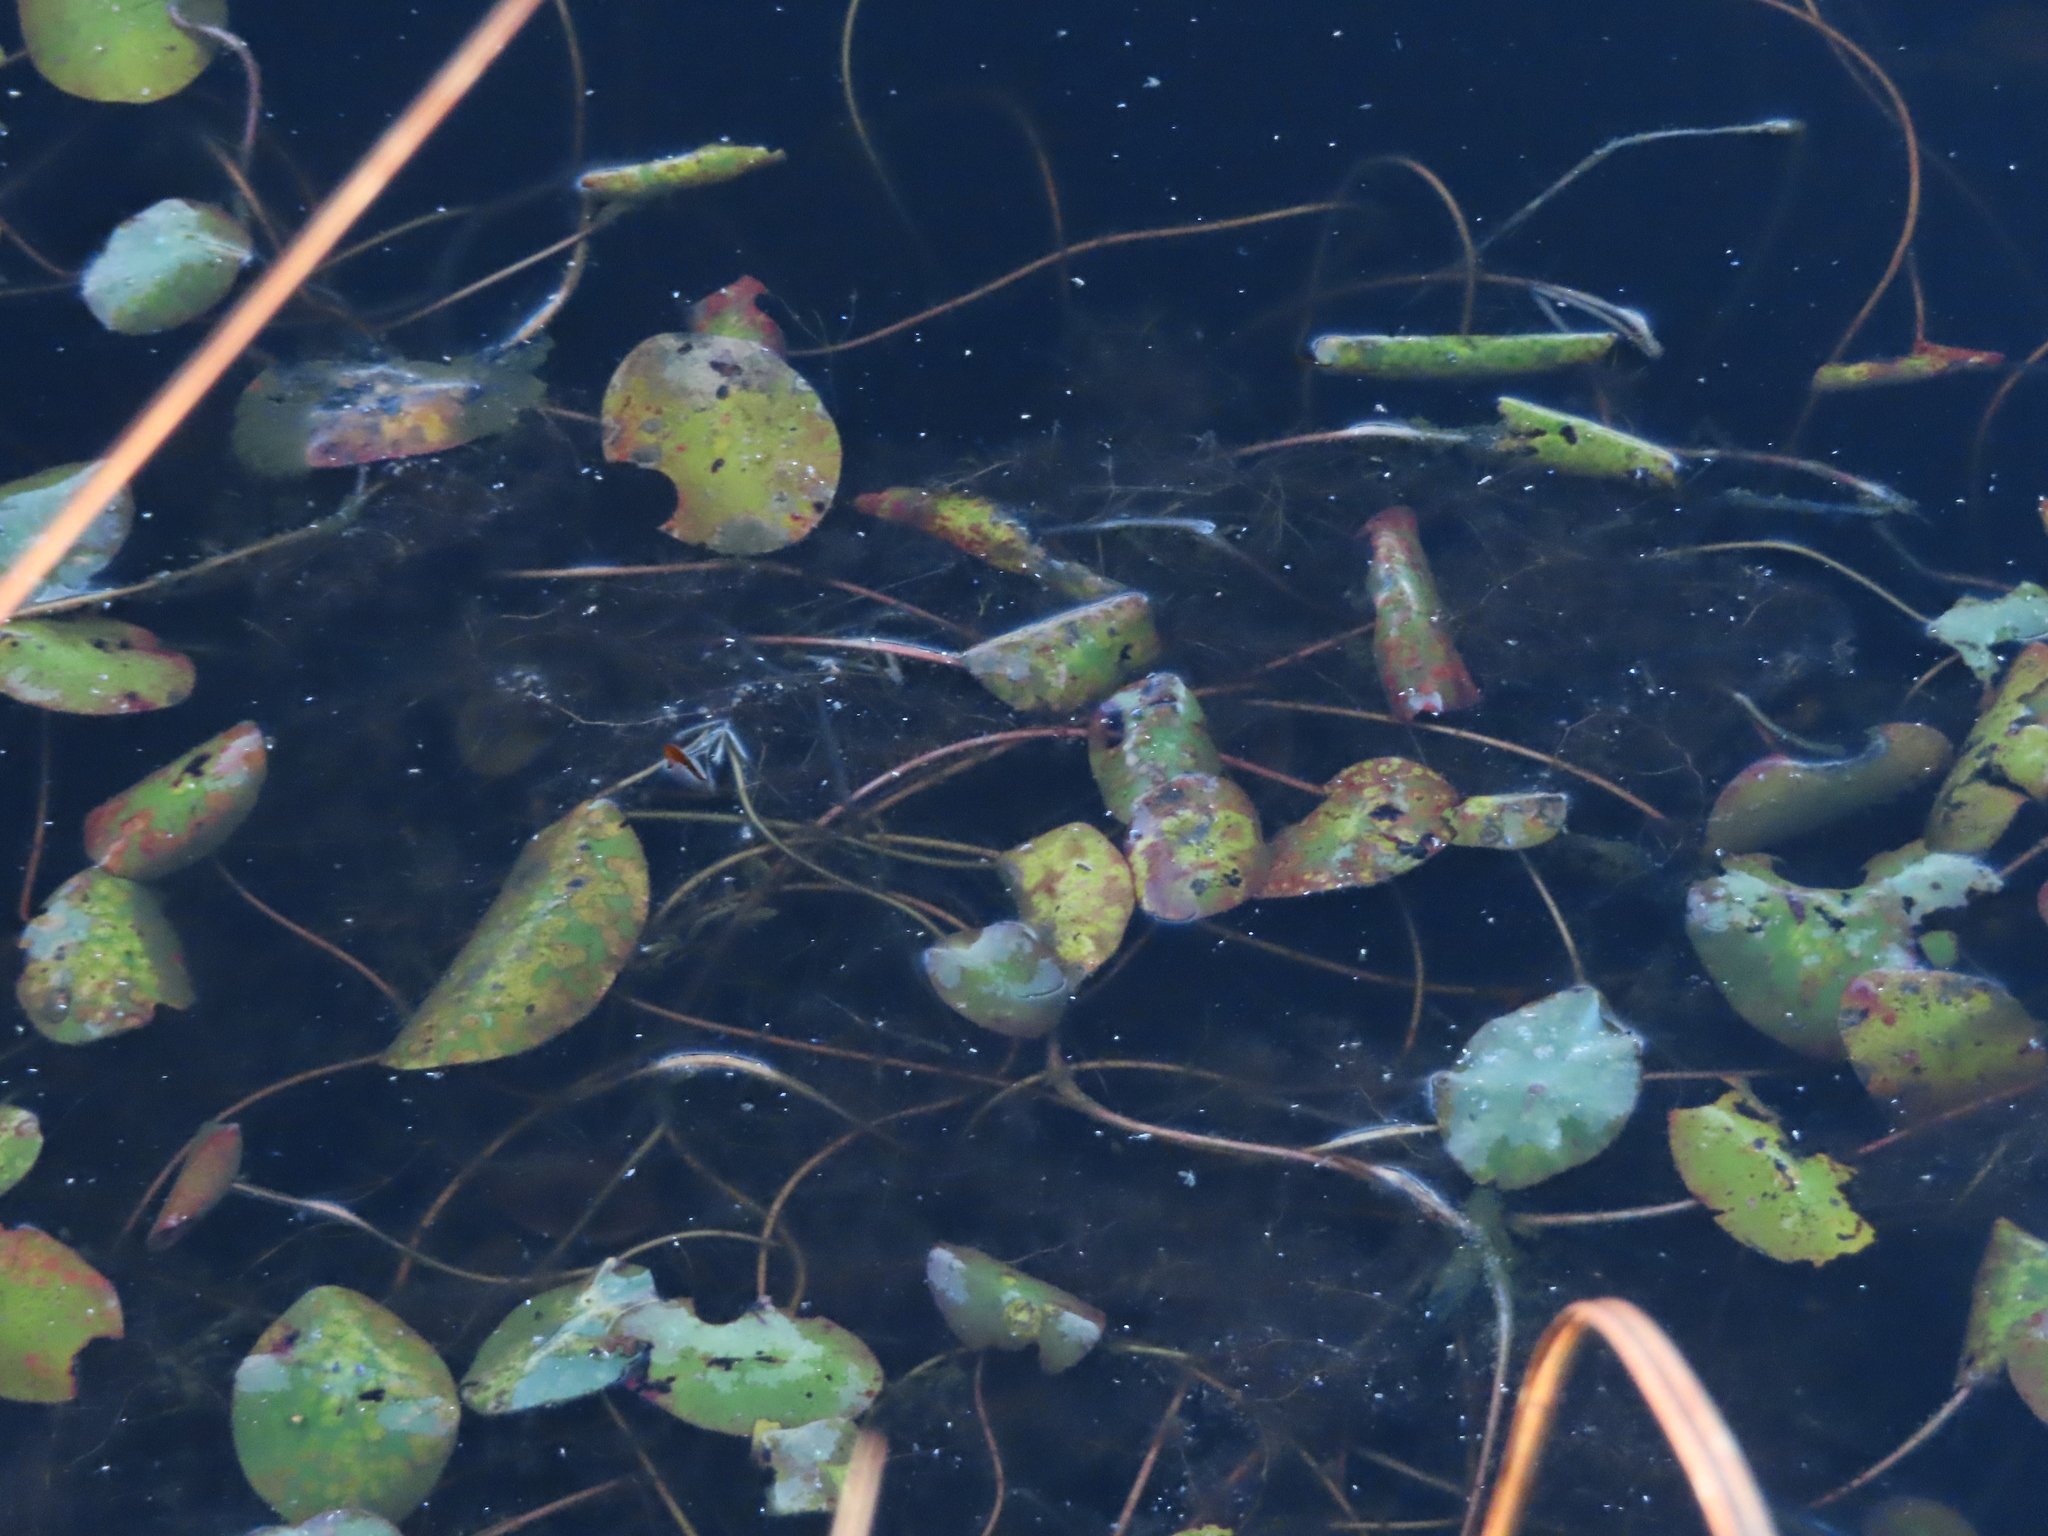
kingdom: Plantae
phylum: Tracheophyta
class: Magnoliopsida
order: Nymphaeales
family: Cabombaceae
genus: Brasenia
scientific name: Brasenia schreberi
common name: Water-shield
